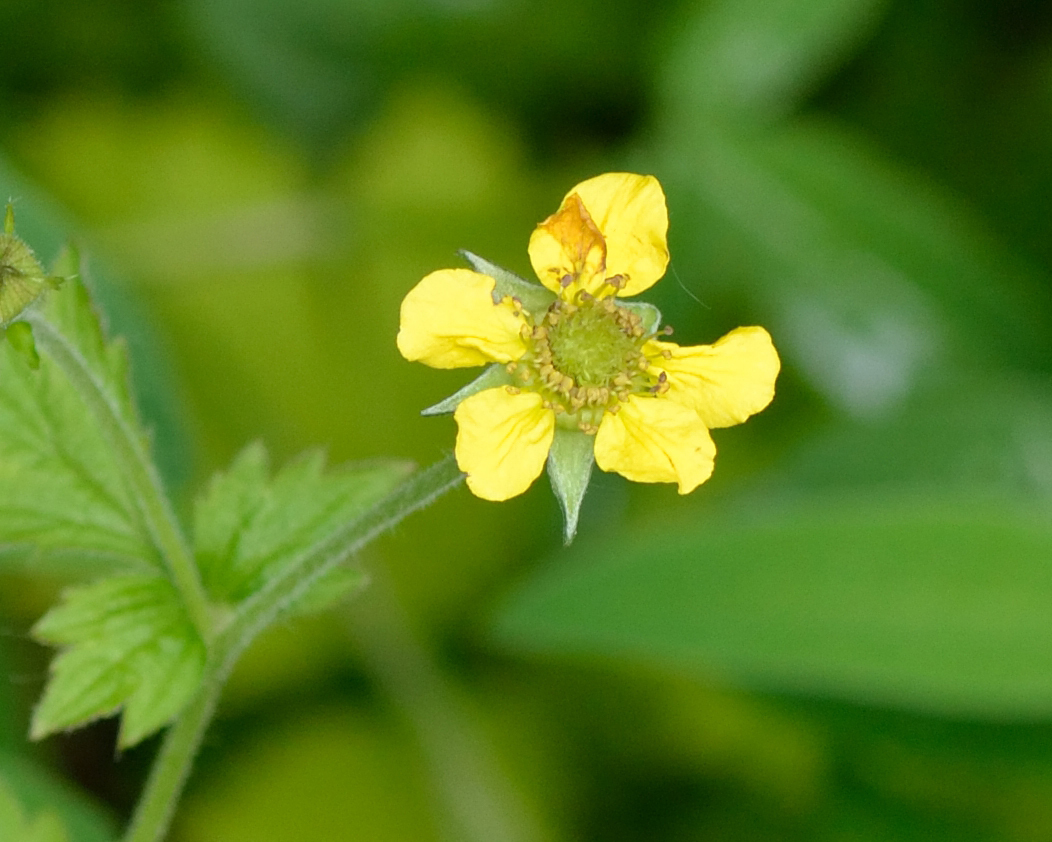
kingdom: Plantae
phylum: Tracheophyta
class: Magnoliopsida
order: Rosales
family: Rosaceae
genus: Geum
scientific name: Geum urbanum
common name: Wood avens
